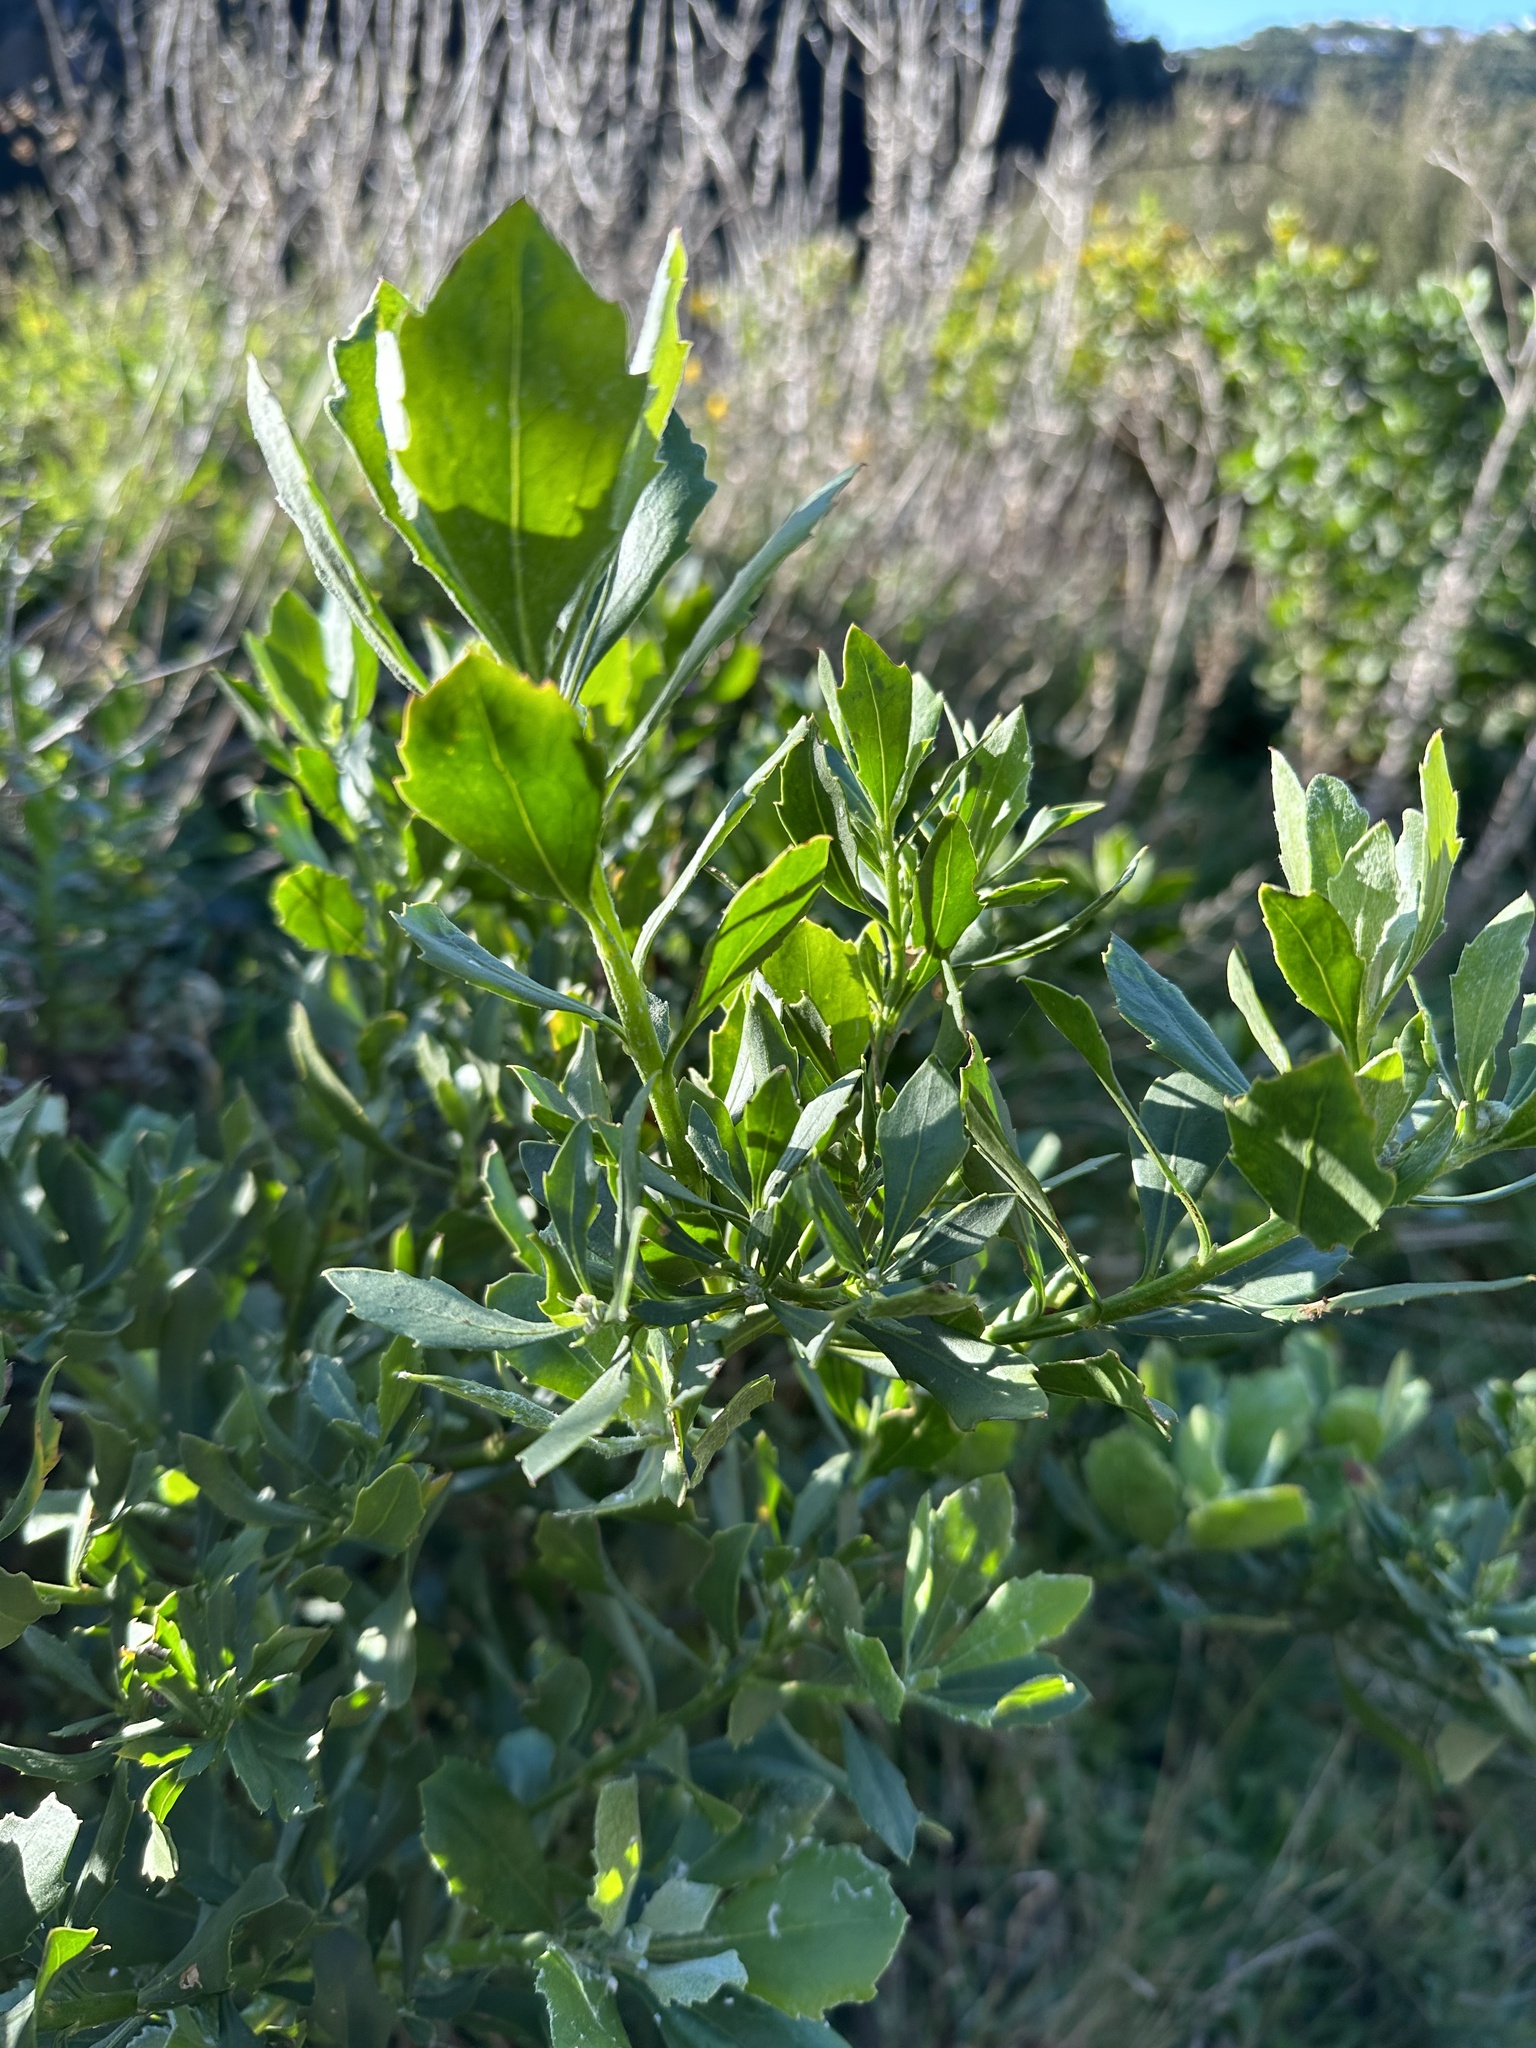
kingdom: Plantae
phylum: Tracheophyta
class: Magnoliopsida
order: Asterales
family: Asteraceae
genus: Osteospermum
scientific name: Osteospermum moniliferum
